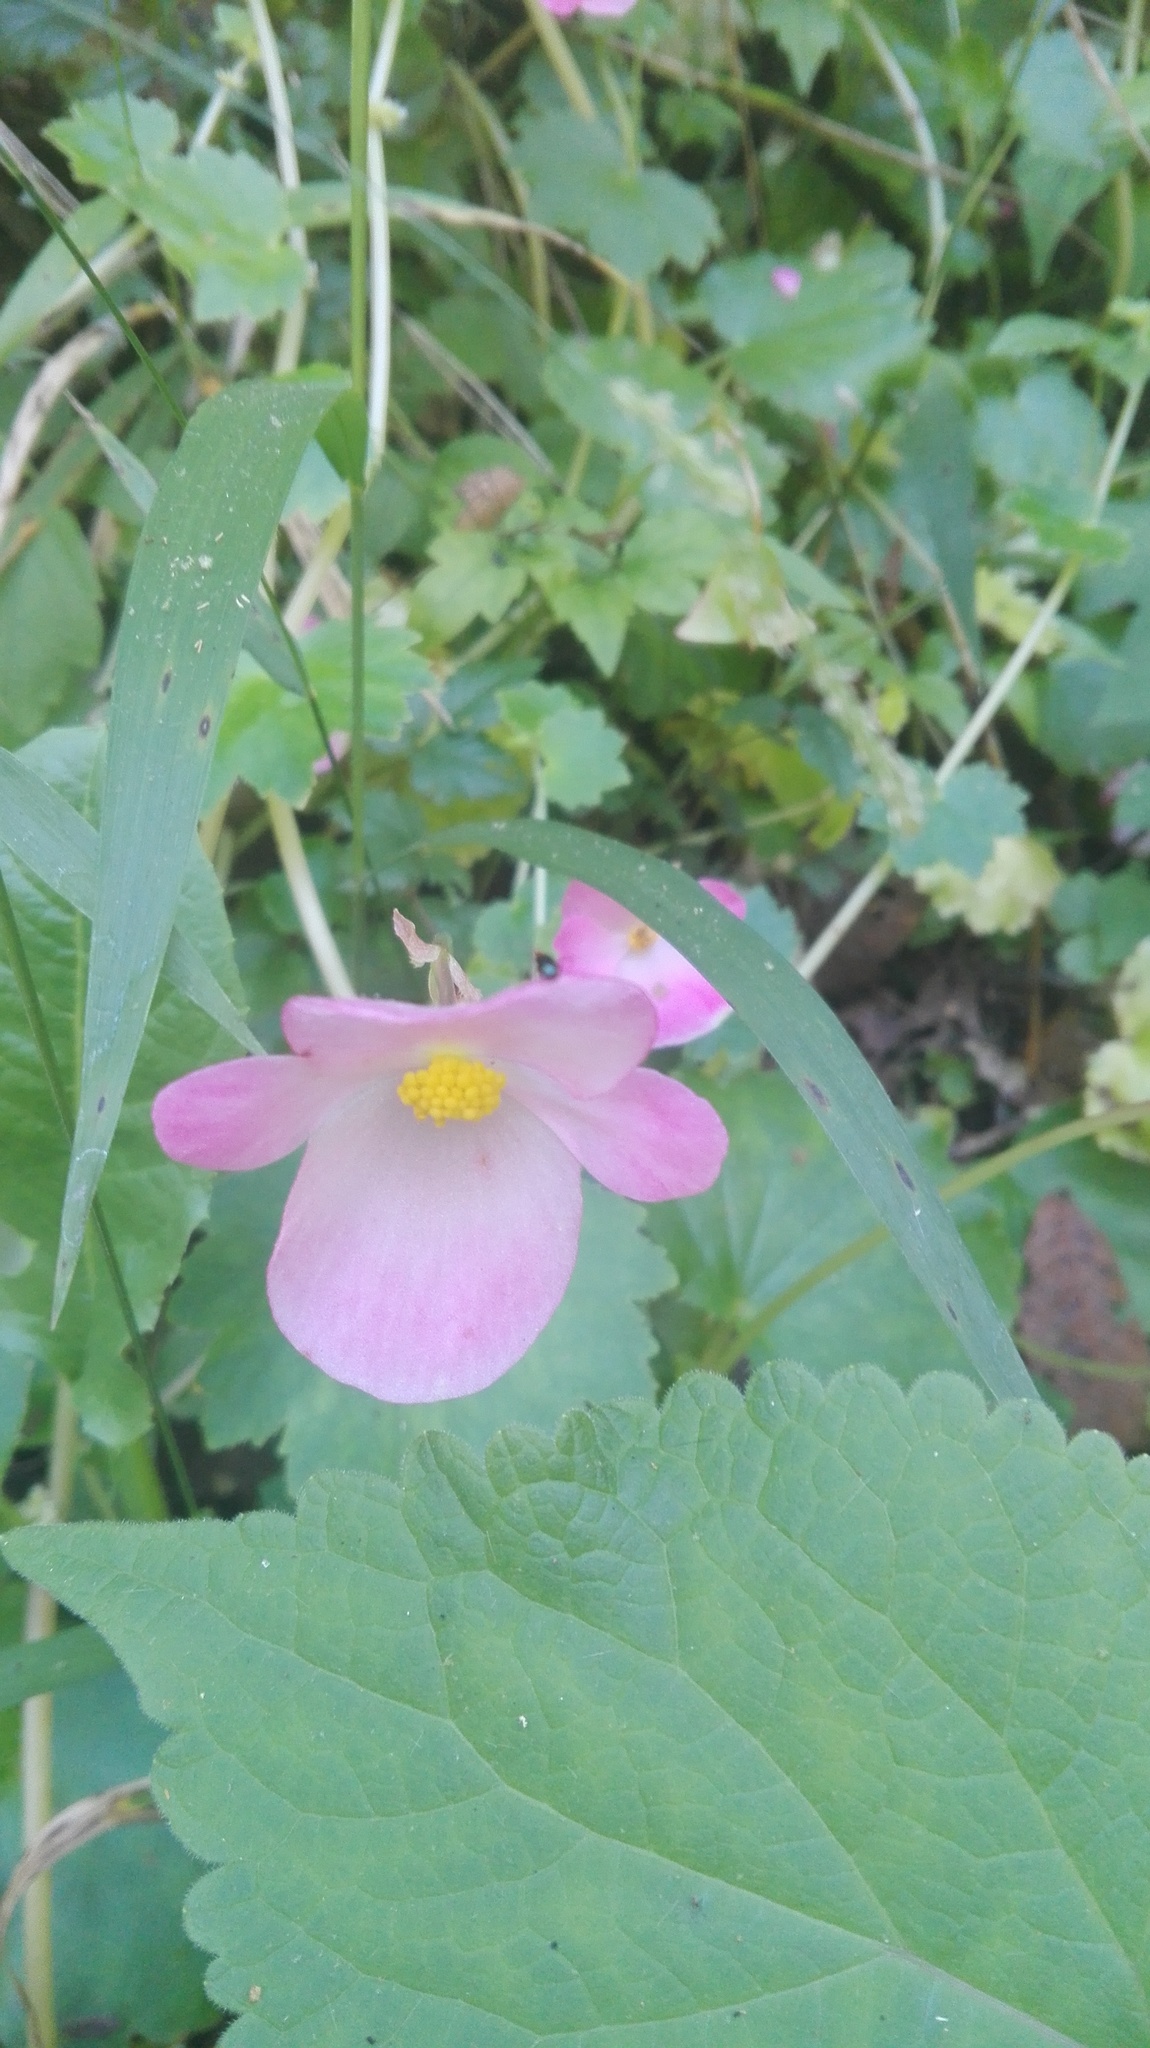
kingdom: Plantae
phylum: Tracheophyta
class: Magnoliopsida
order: Cucurbitales
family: Begoniaceae
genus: Begonia
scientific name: Begonia uniflora
